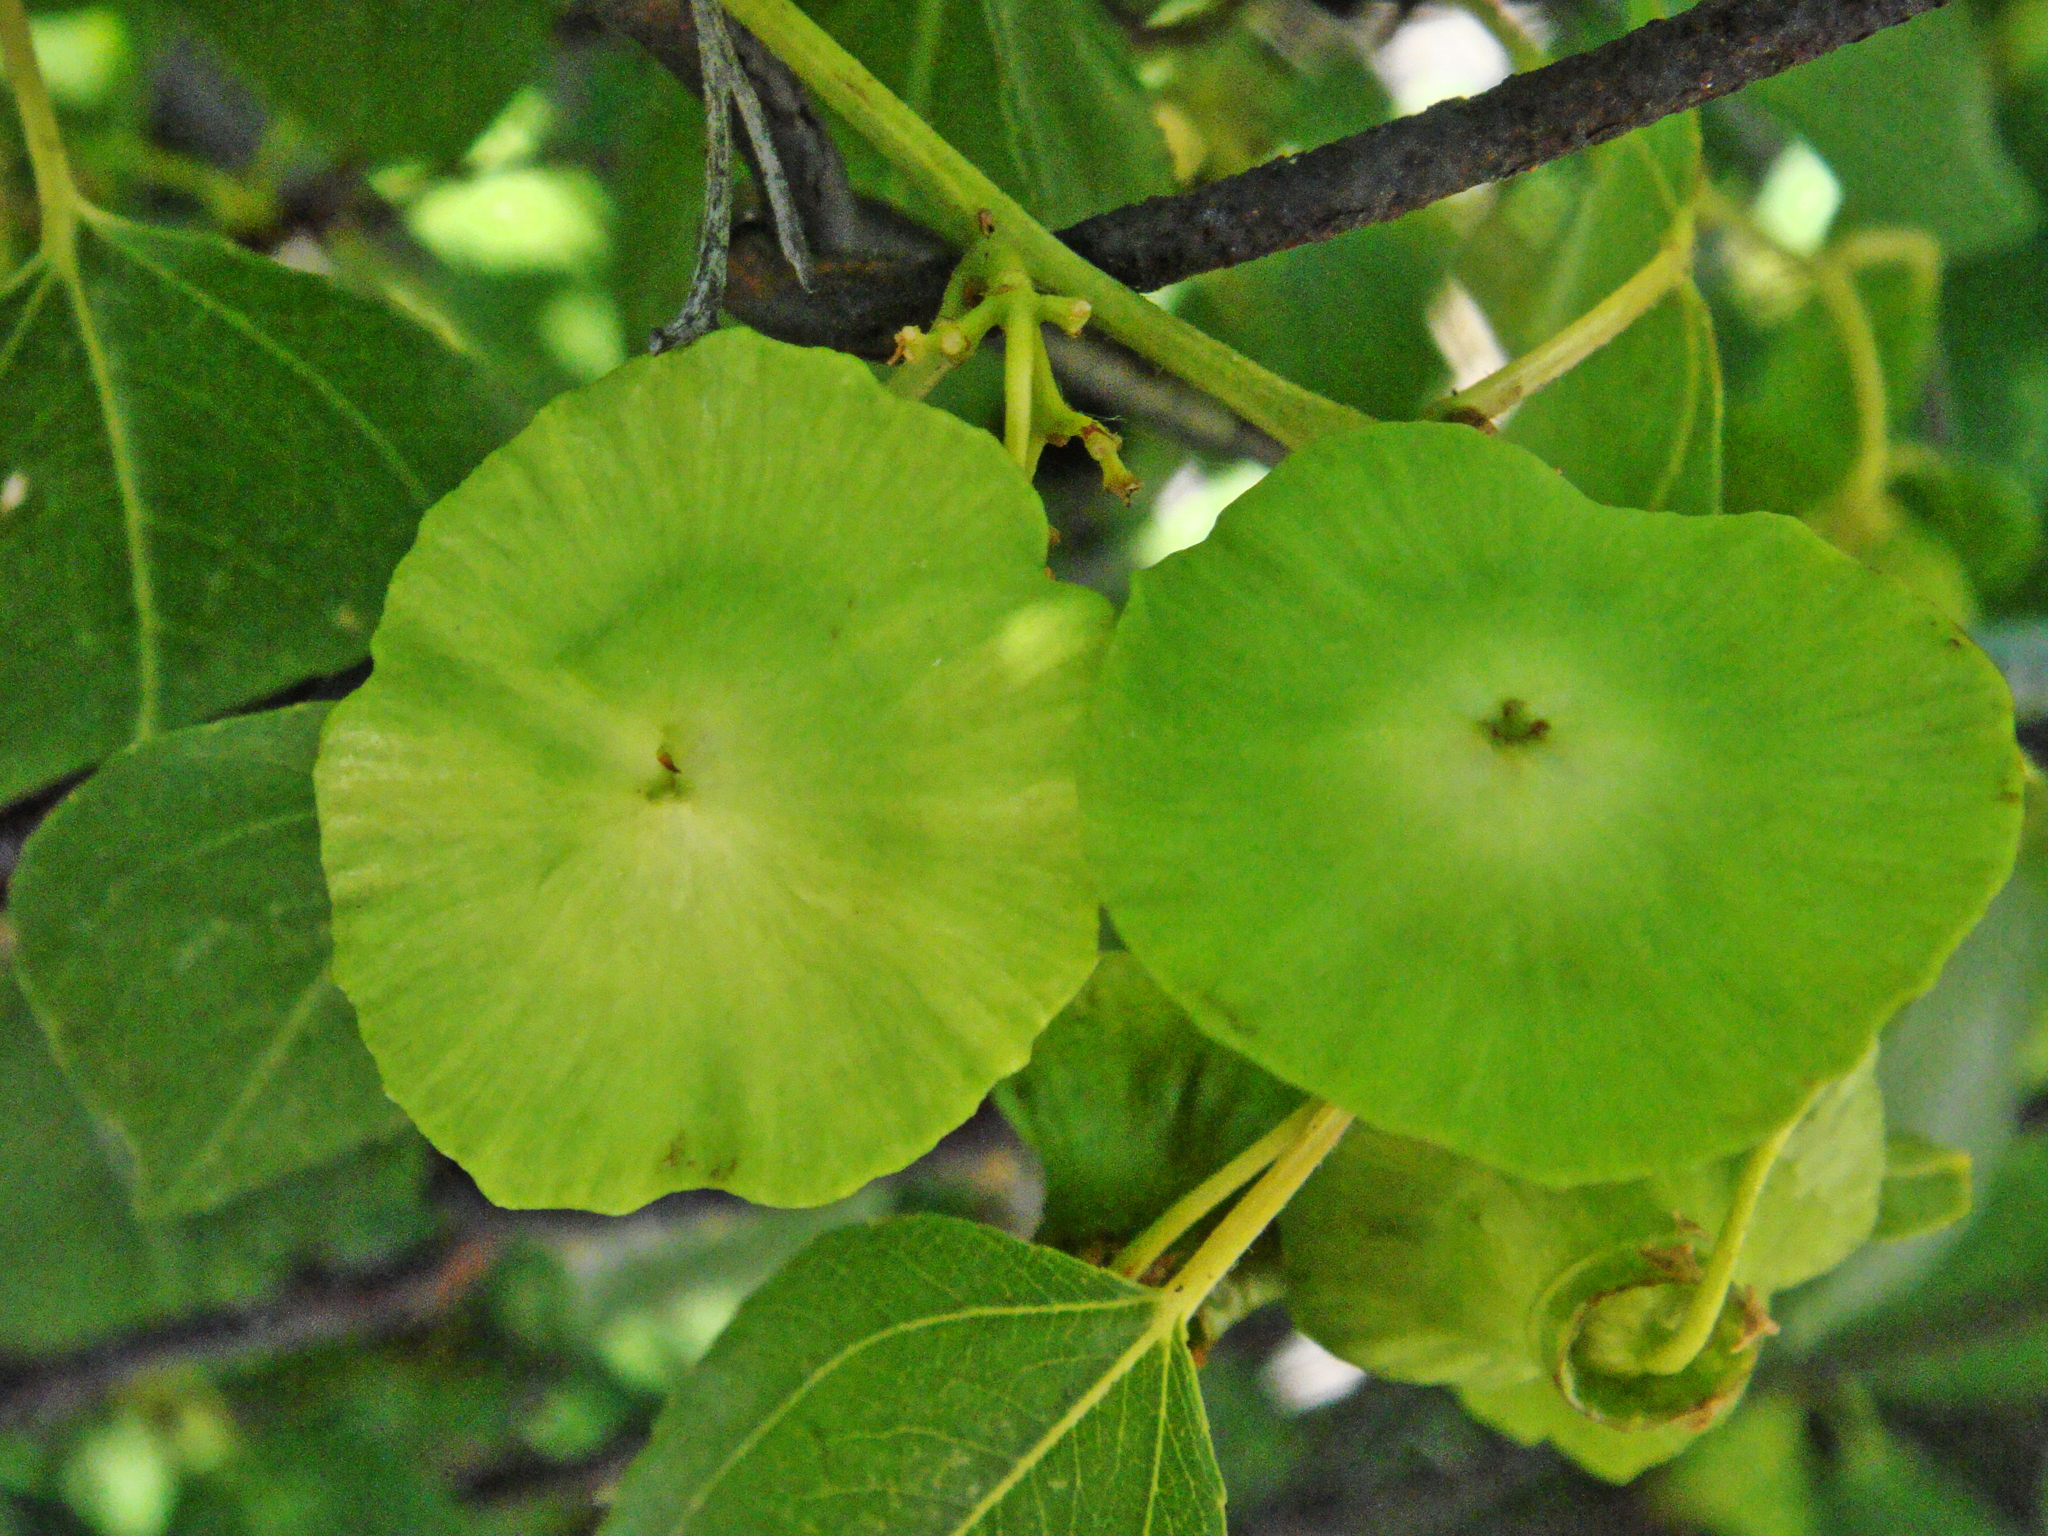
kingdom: Plantae
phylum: Tracheophyta
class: Magnoliopsida
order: Rosales
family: Rhamnaceae
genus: Paliurus
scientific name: Paliurus spina-christi
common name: Jeruselem thorn
